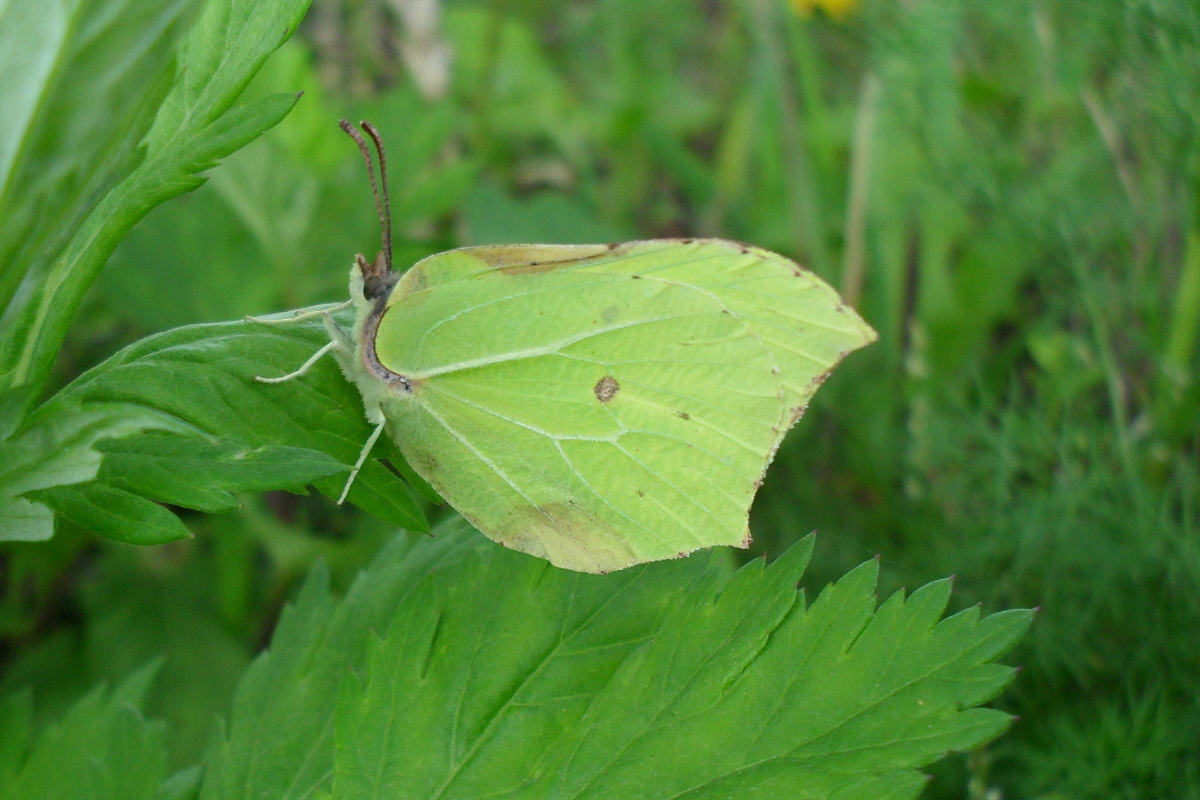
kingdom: Animalia
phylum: Arthropoda
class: Insecta
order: Lepidoptera
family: Pieridae
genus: Gonepteryx
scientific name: Gonepteryx rhamni
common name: Brimstone
